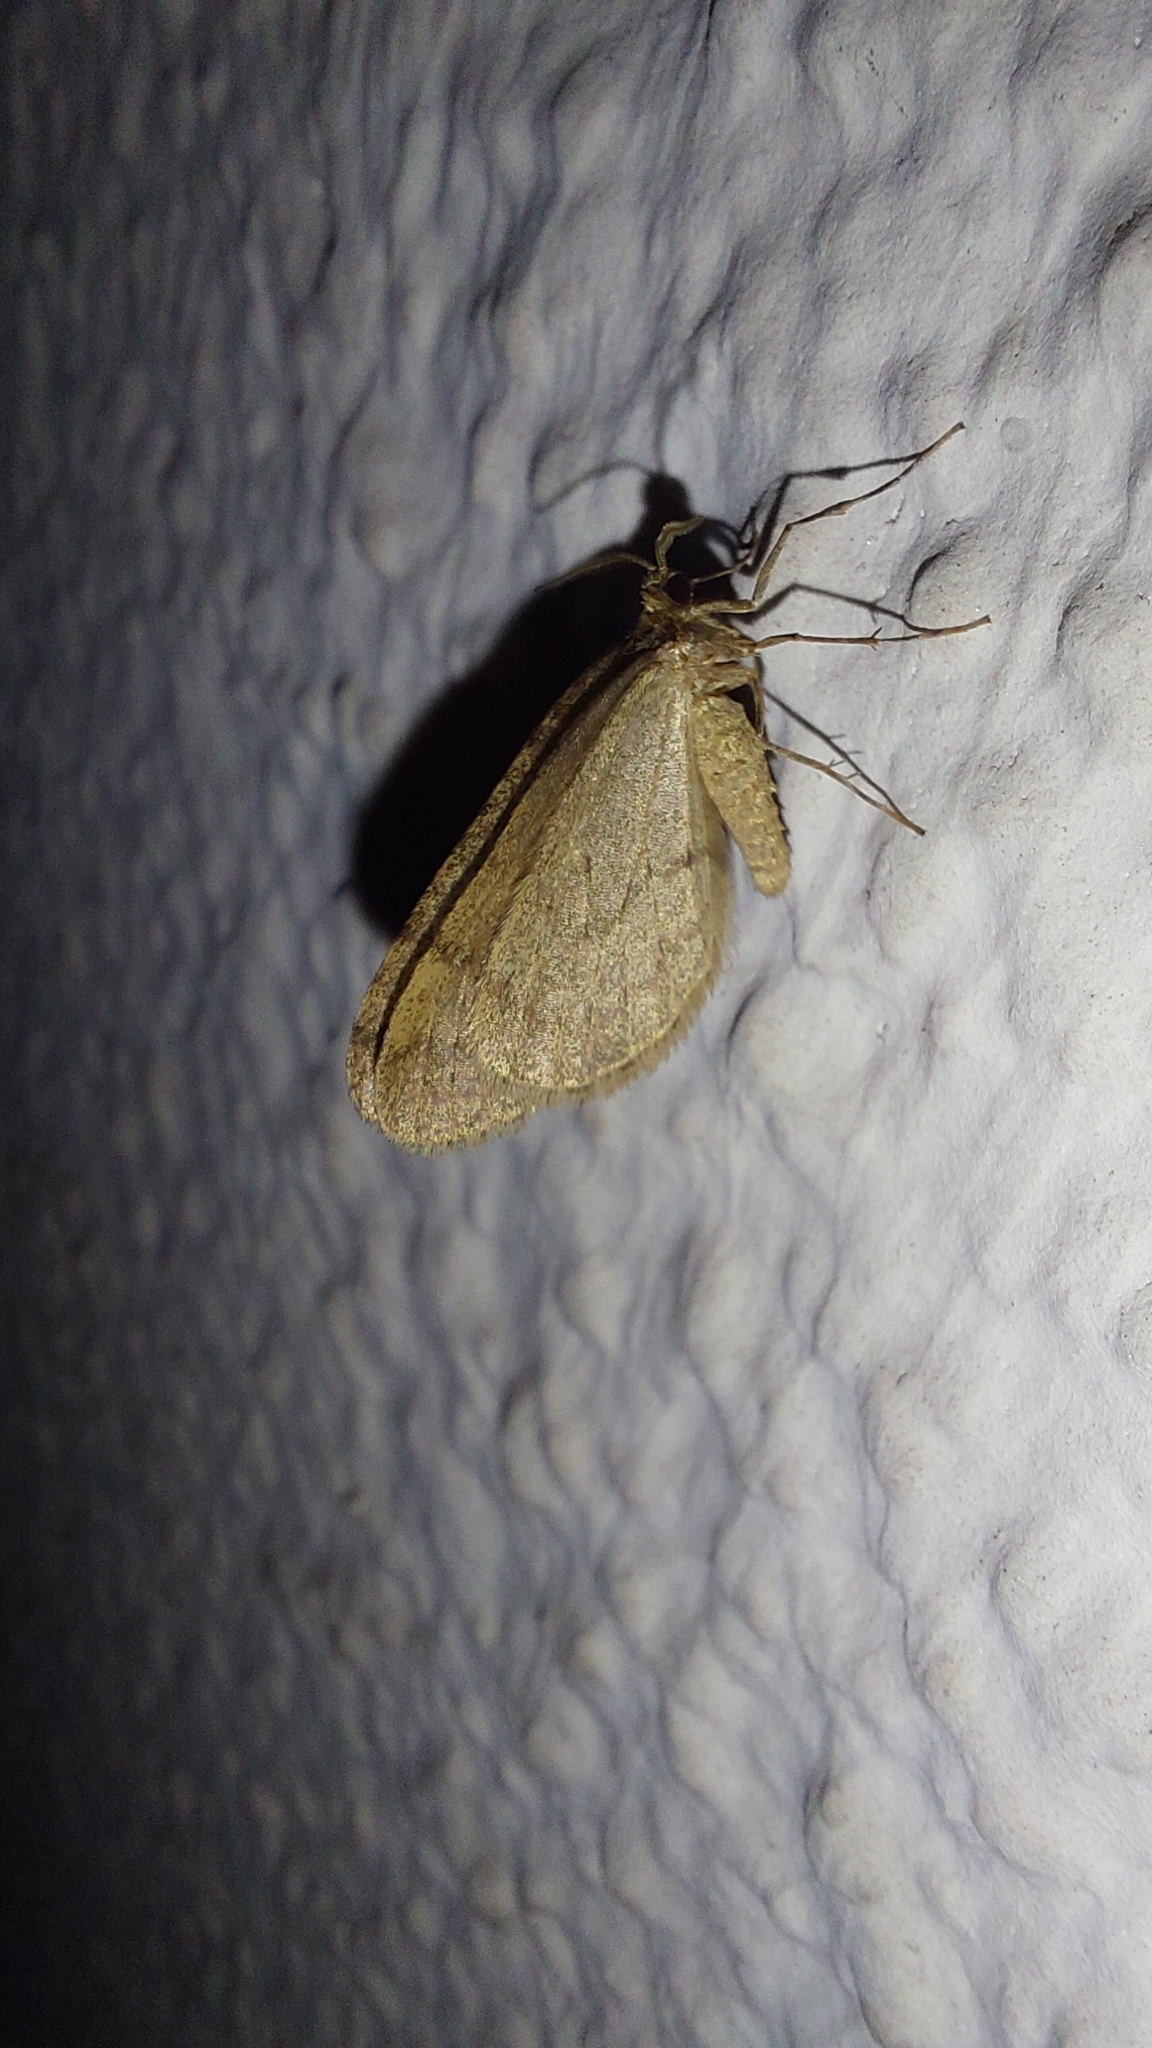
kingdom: Animalia
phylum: Arthropoda
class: Insecta
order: Lepidoptera
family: Geometridae
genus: Operophtera
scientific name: Operophtera brumata
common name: Winter moth
